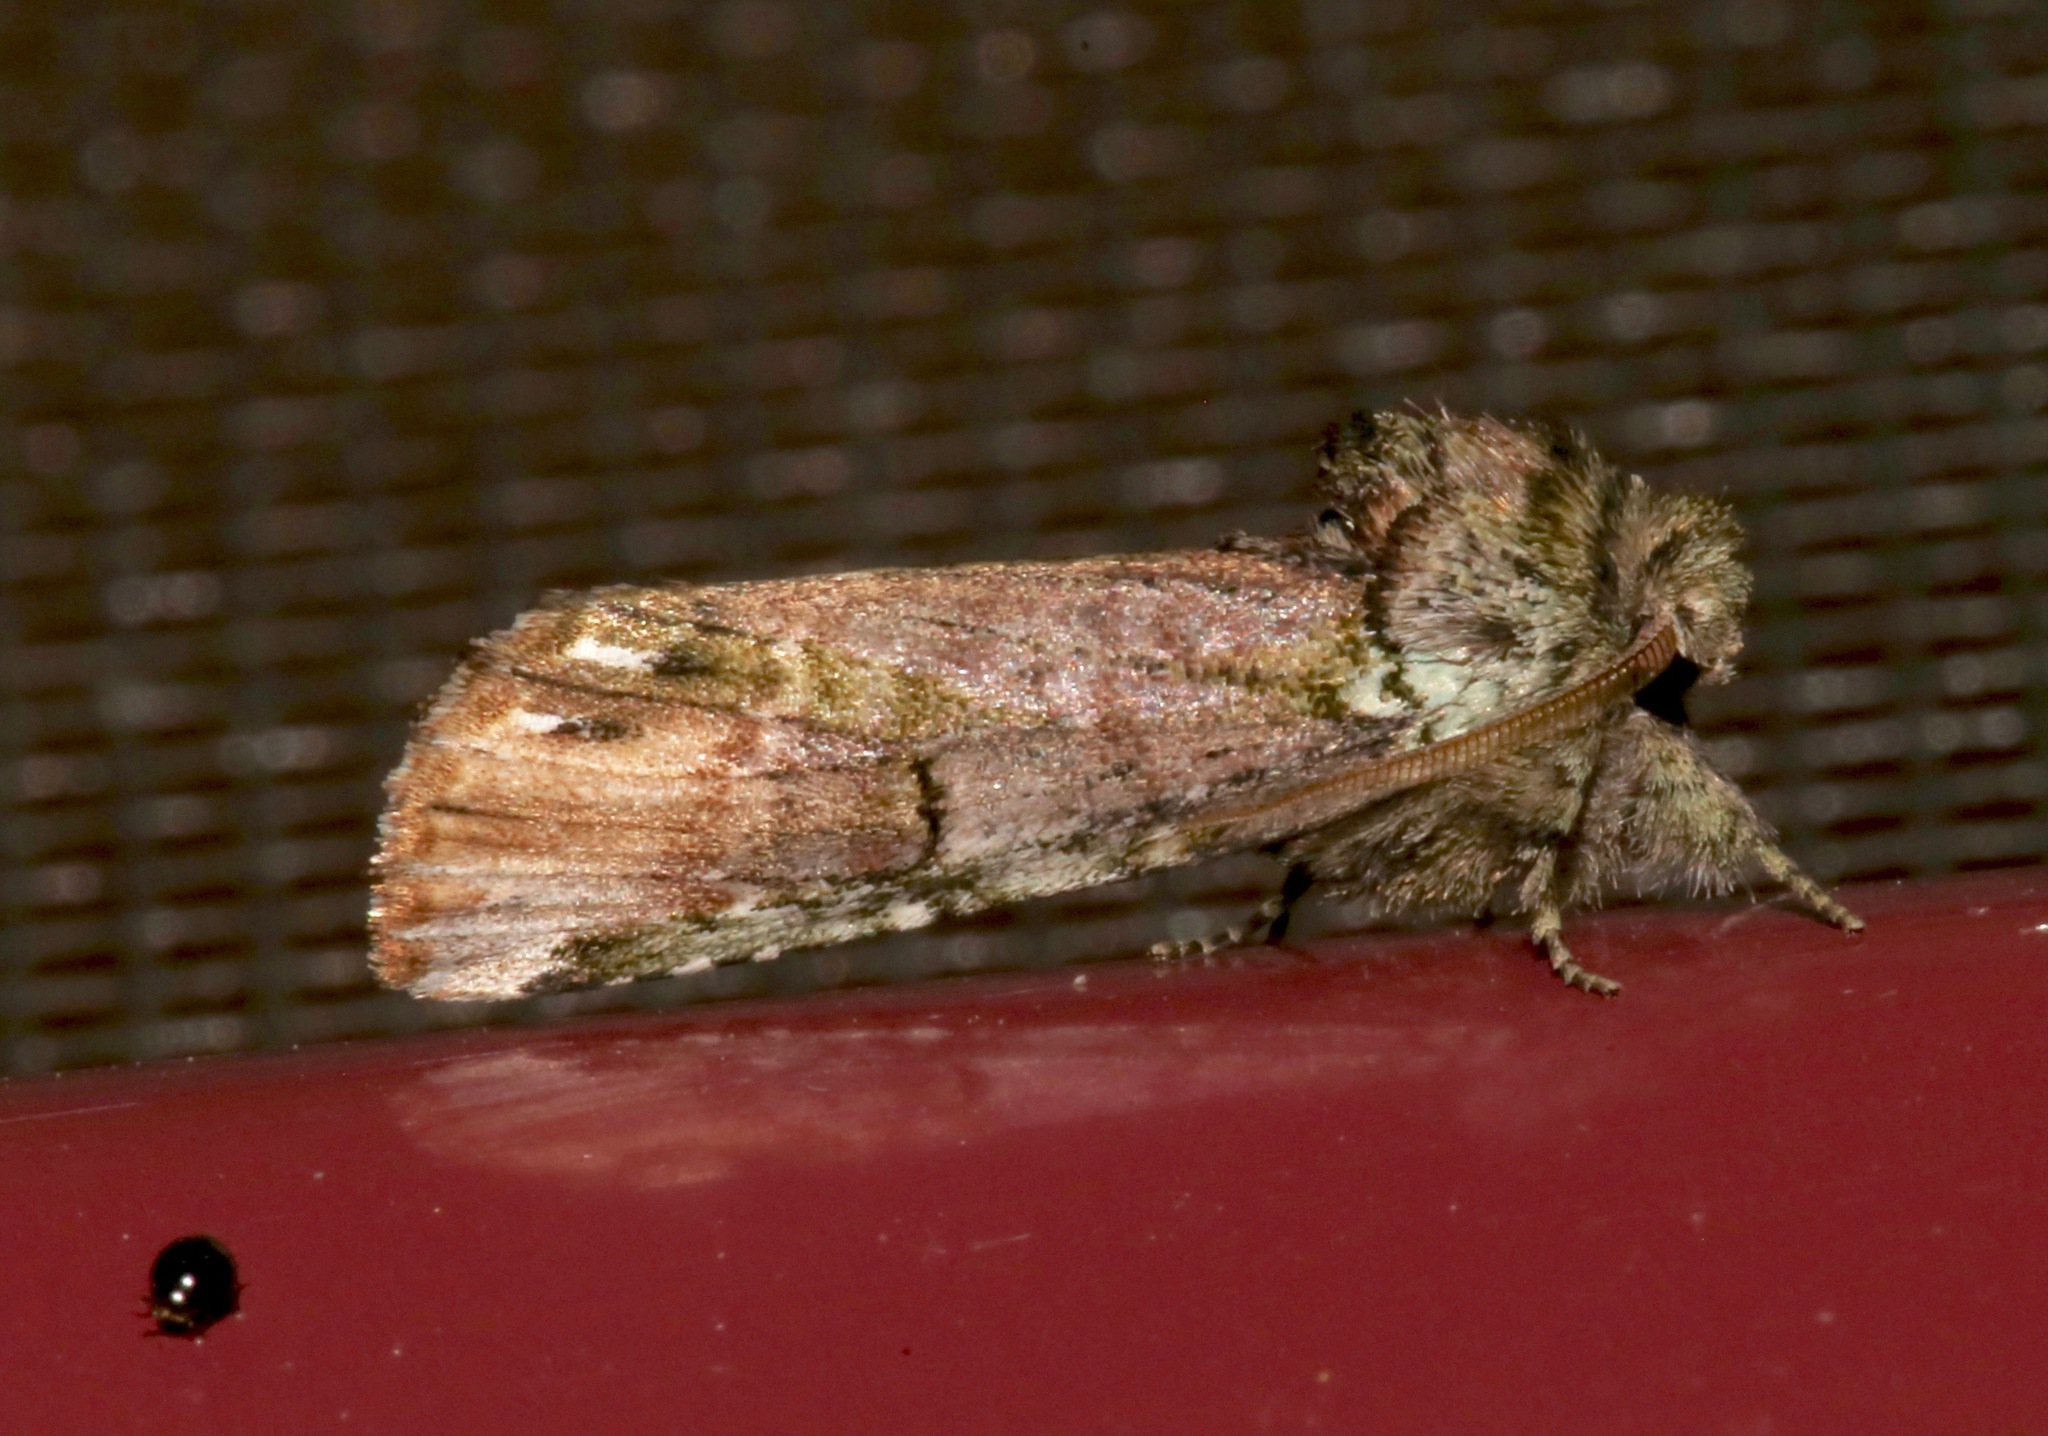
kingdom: Animalia
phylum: Arthropoda
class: Insecta
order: Lepidoptera
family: Notodontidae
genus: Schizura
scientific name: Schizura
